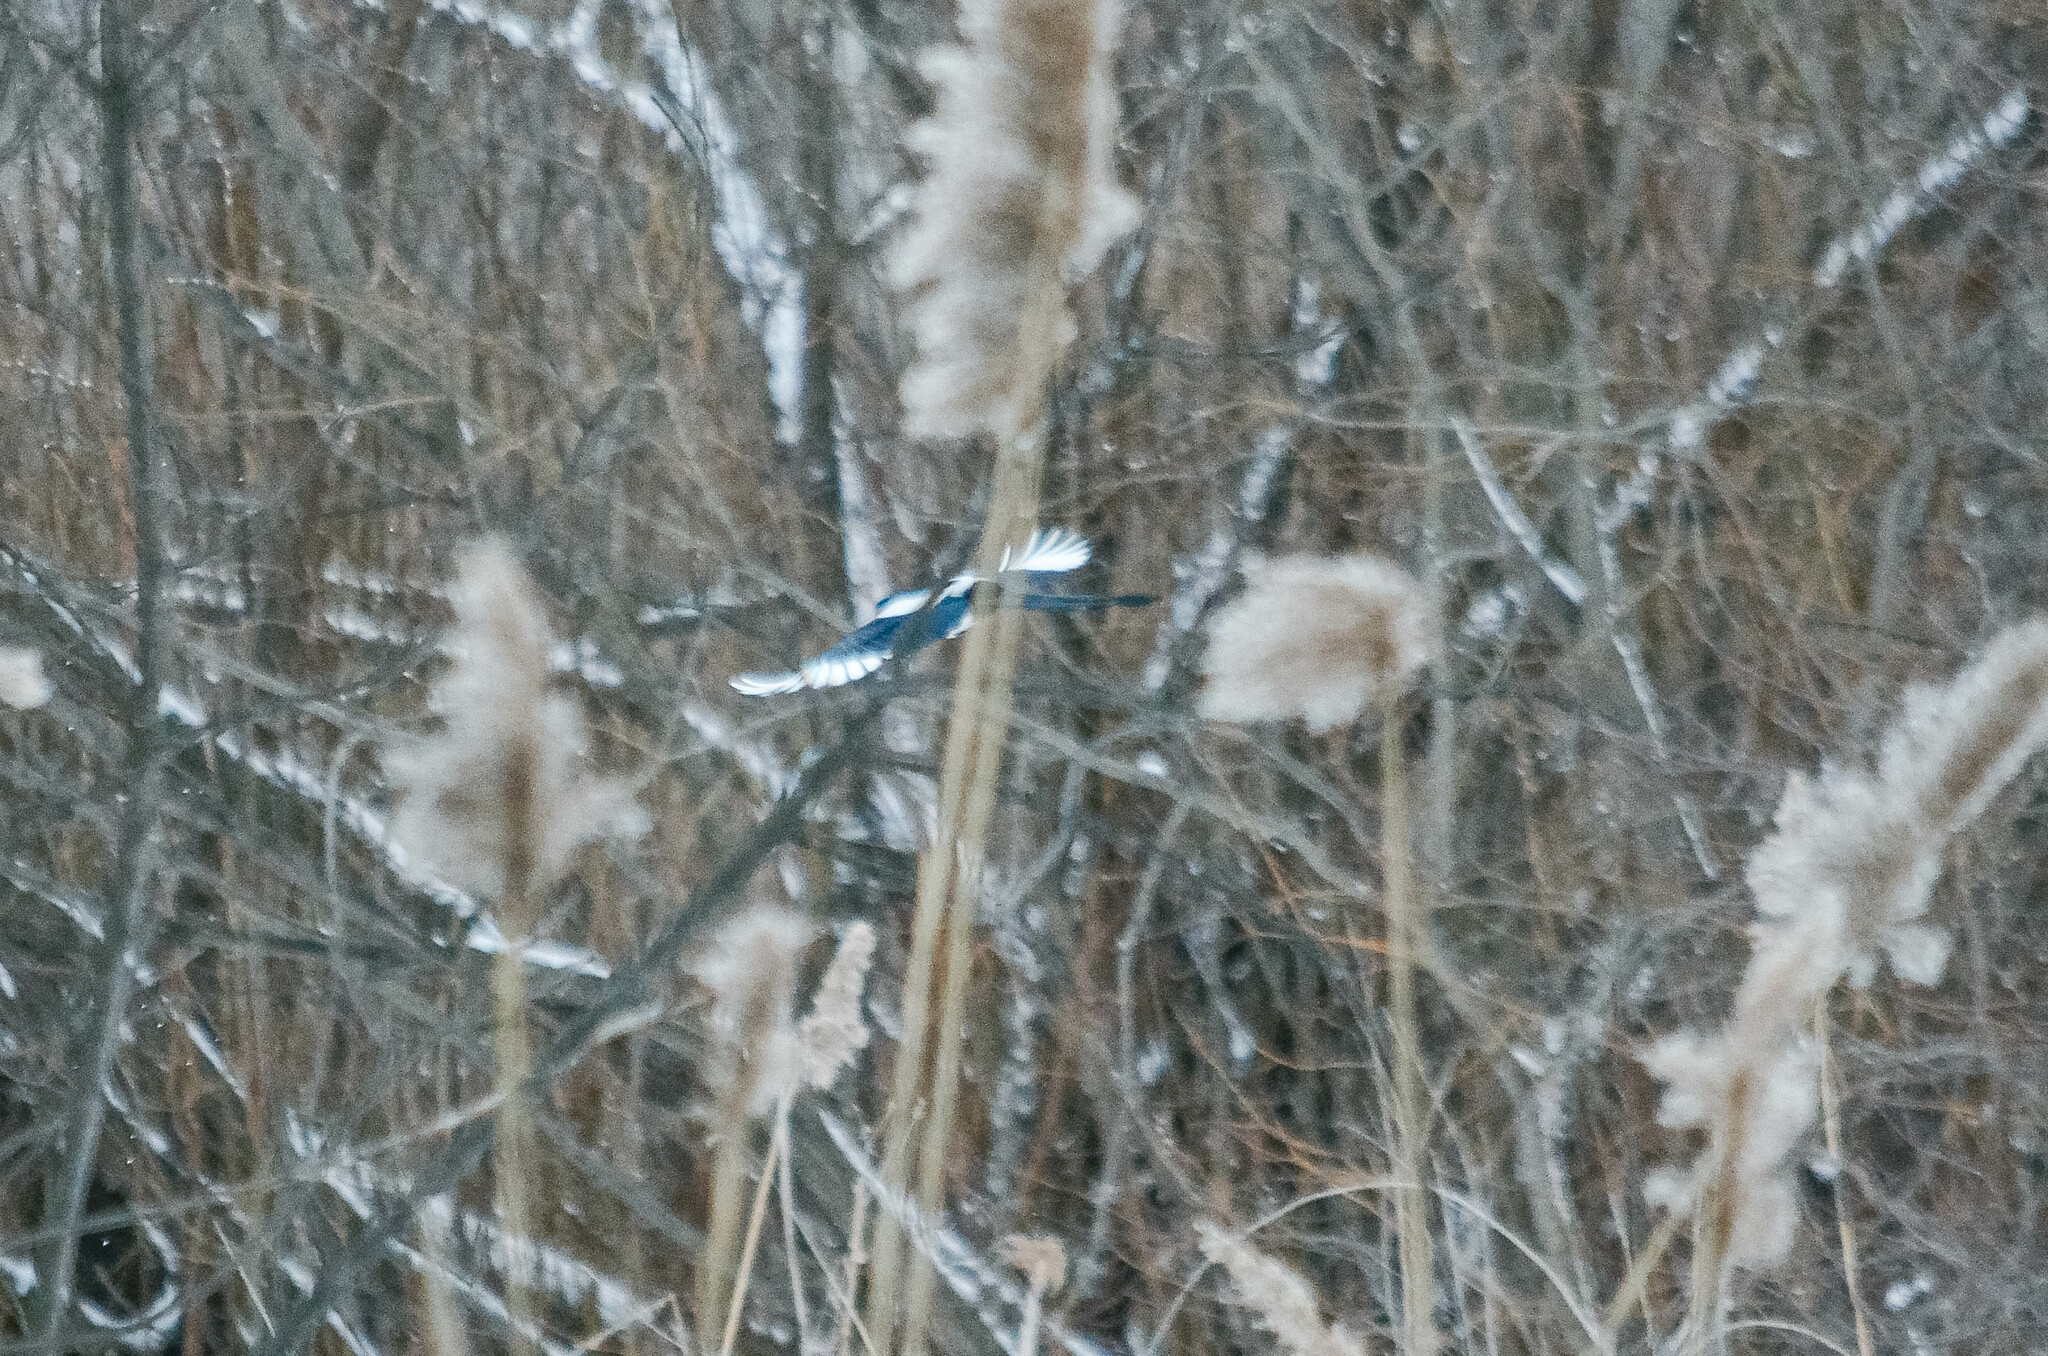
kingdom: Animalia
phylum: Chordata
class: Aves
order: Passeriformes
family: Corvidae
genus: Pica
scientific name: Pica pica
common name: Eurasian magpie
